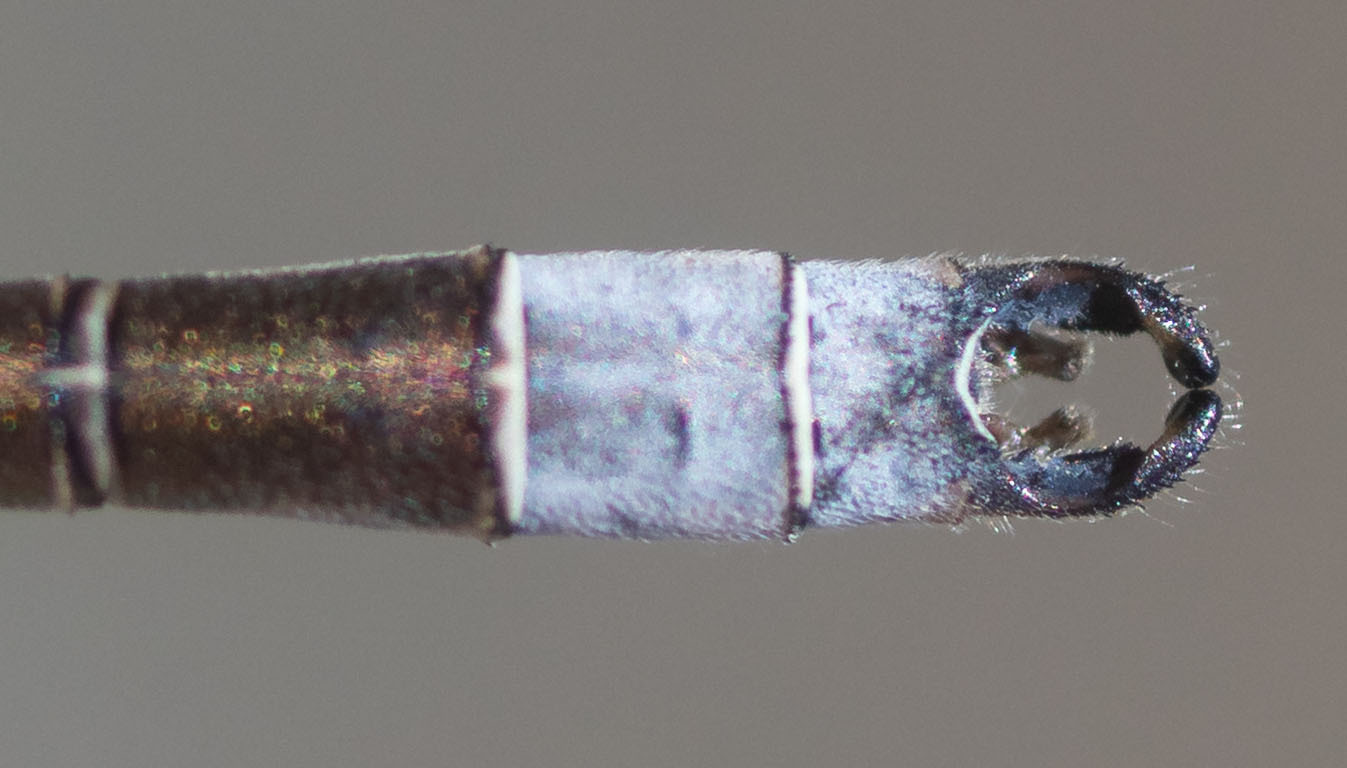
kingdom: Animalia
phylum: Arthropoda
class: Insecta
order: Odonata
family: Lestidae
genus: Lestes
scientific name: Lestes congener
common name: Spotted spreadwing
